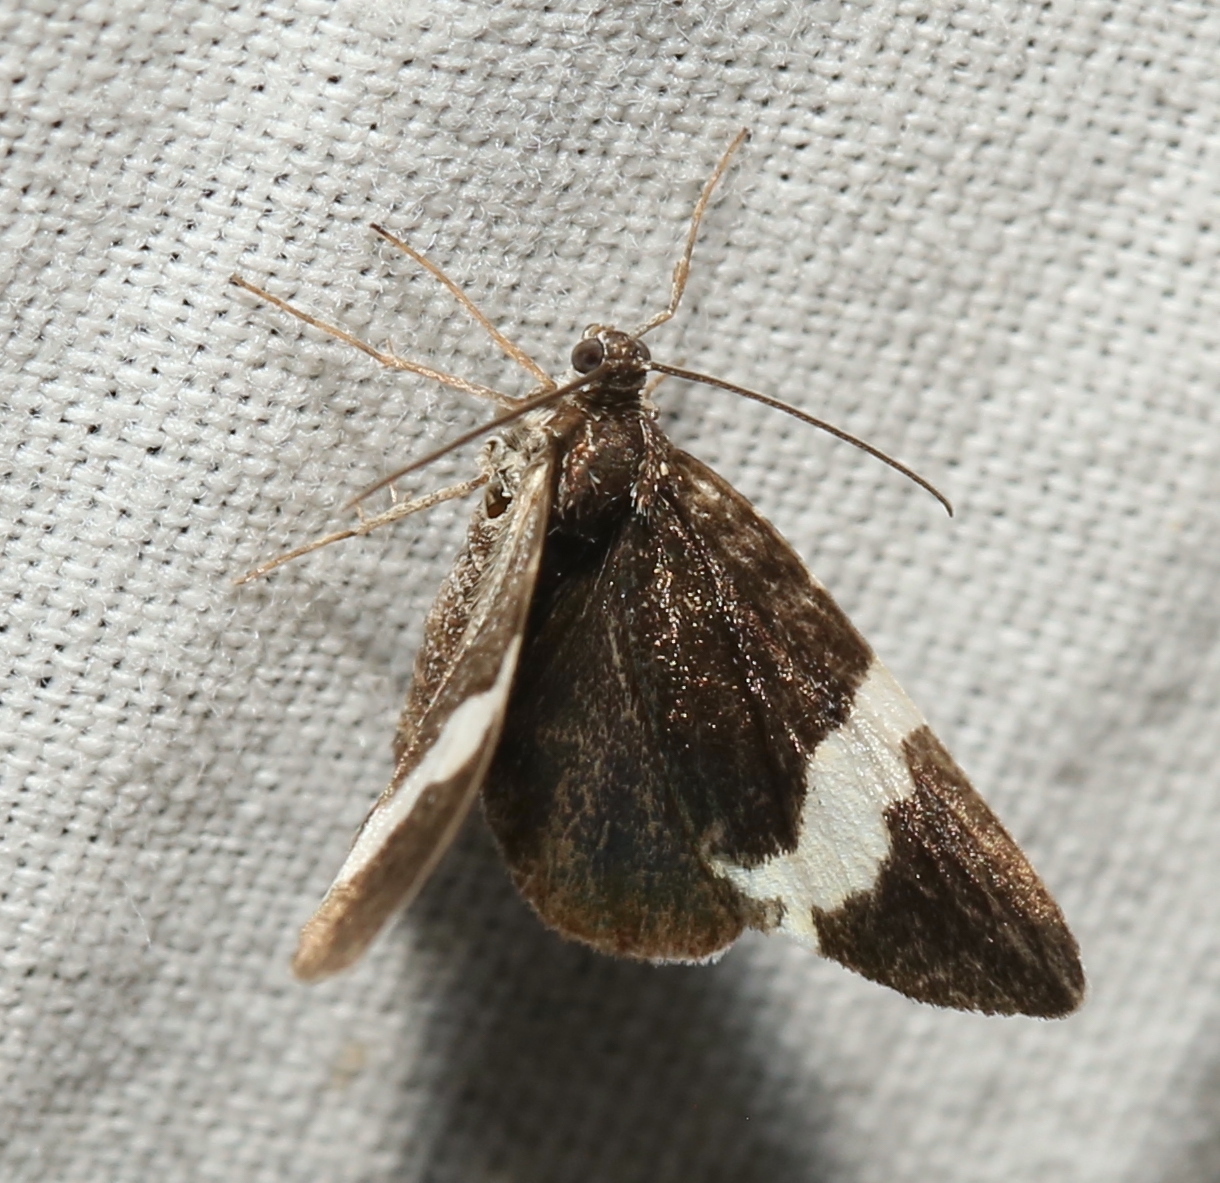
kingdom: Animalia
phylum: Arthropoda
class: Insecta
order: Lepidoptera
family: Geometridae
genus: Trichodezia
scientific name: Trichodezia albovittata
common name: White striped black
